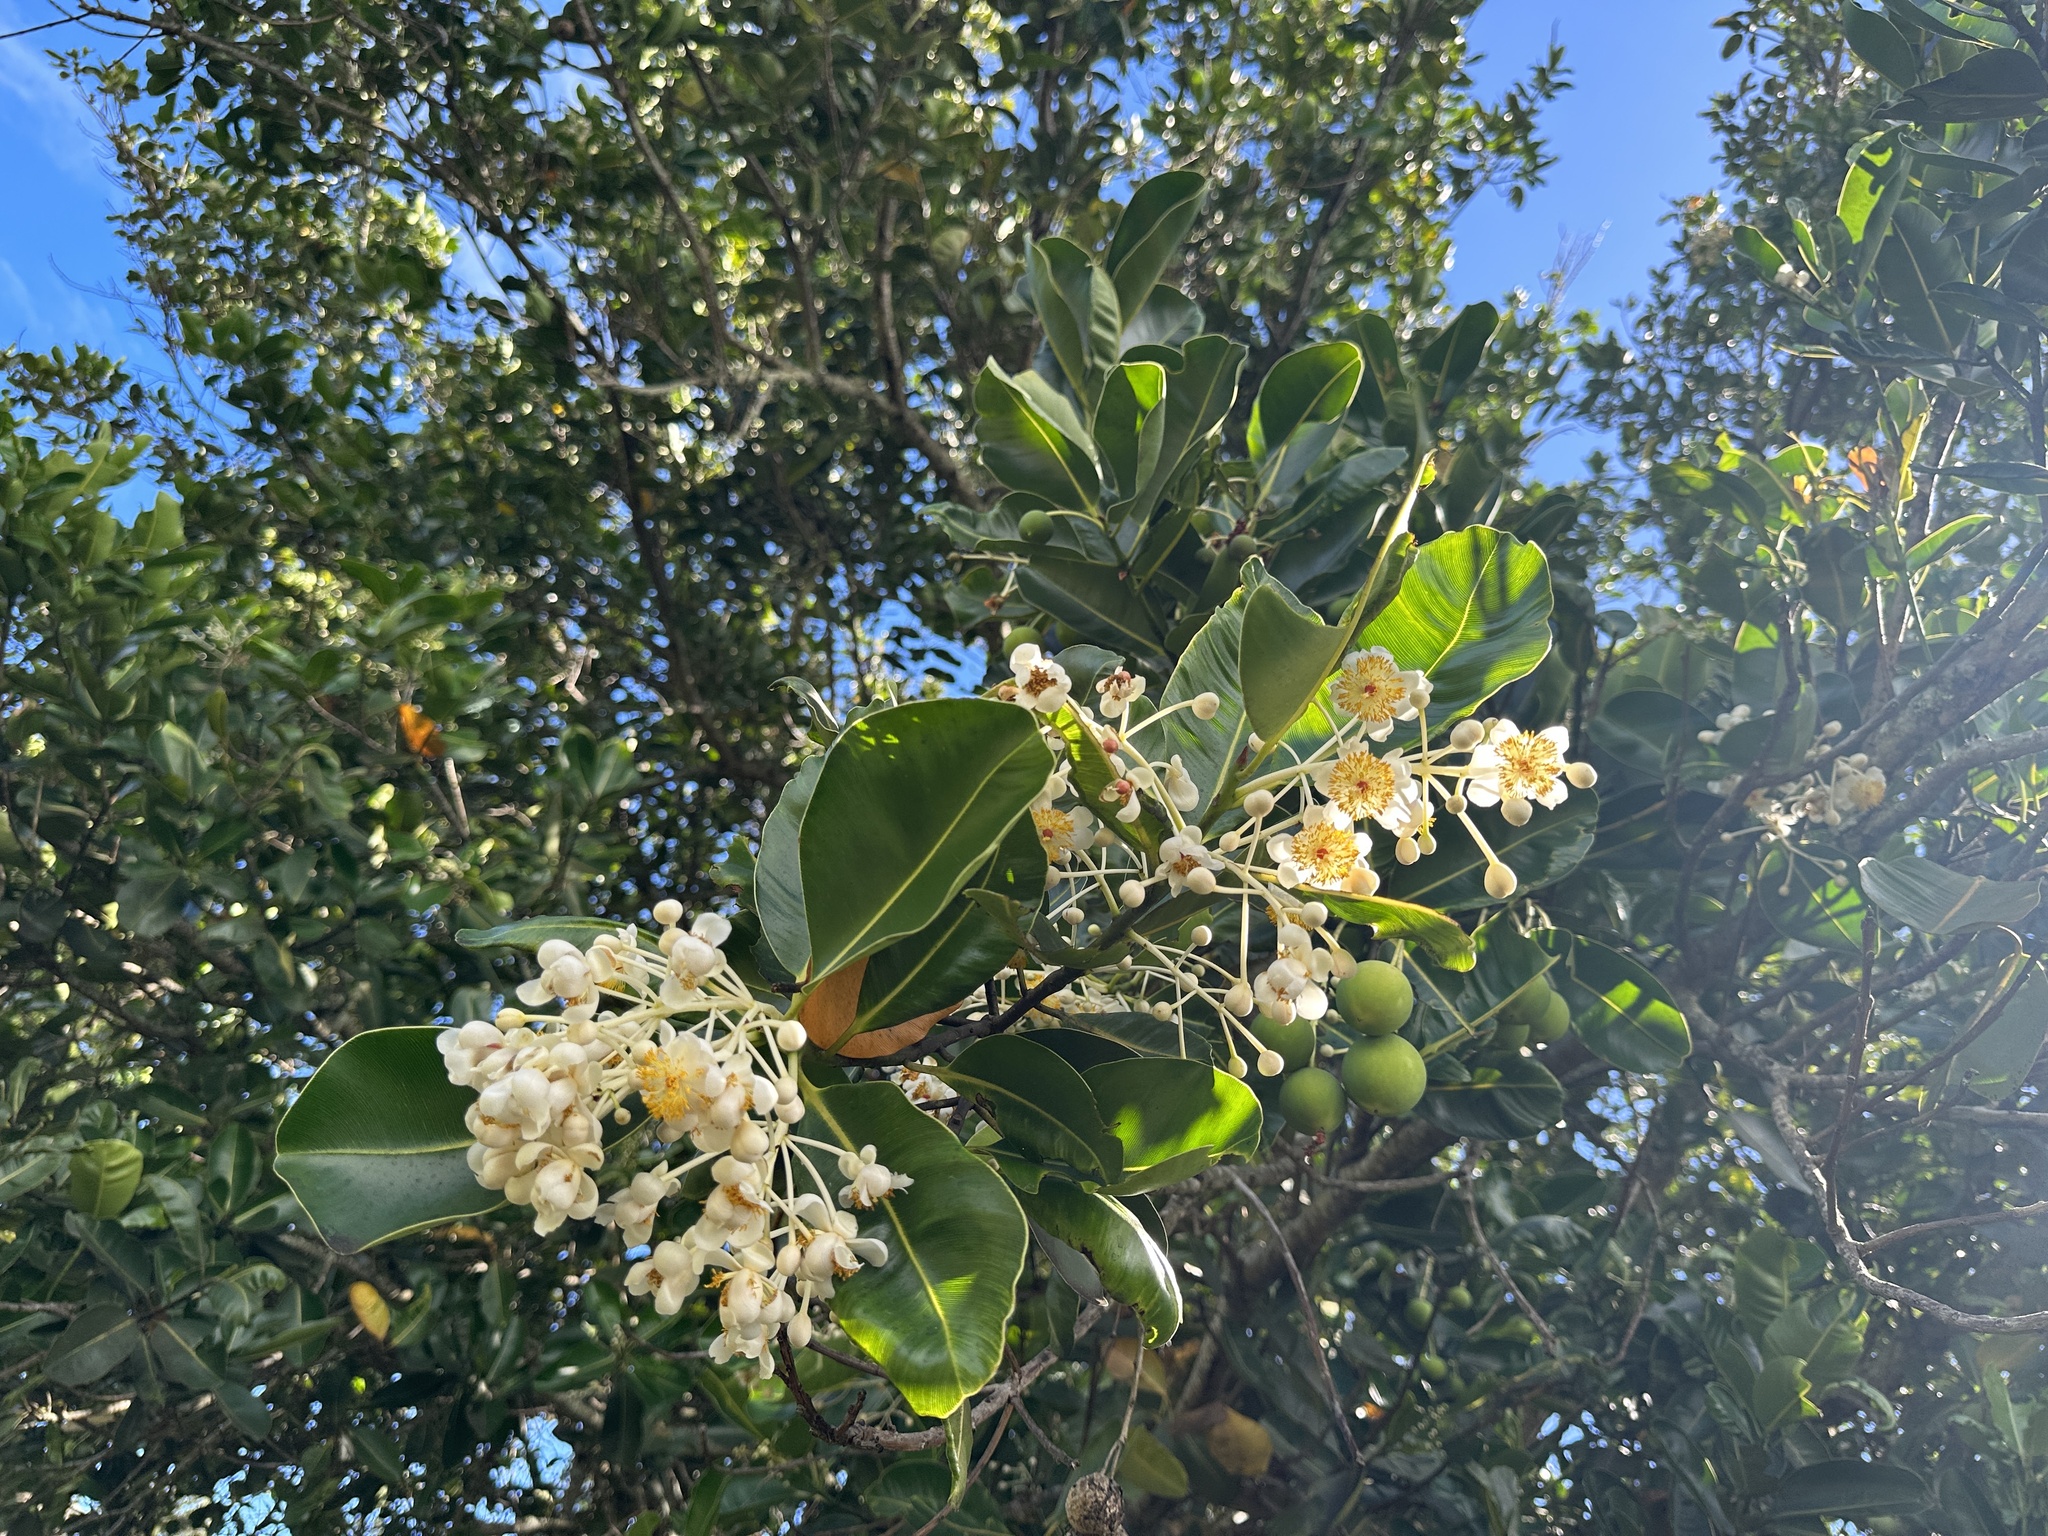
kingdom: Plantae
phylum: Tracheophyta
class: Magnoliopsida
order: Malpighiales
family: Calophyllaceae
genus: Calophyllum
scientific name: Calophyllum inophyllum
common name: Alexandrian laurel
